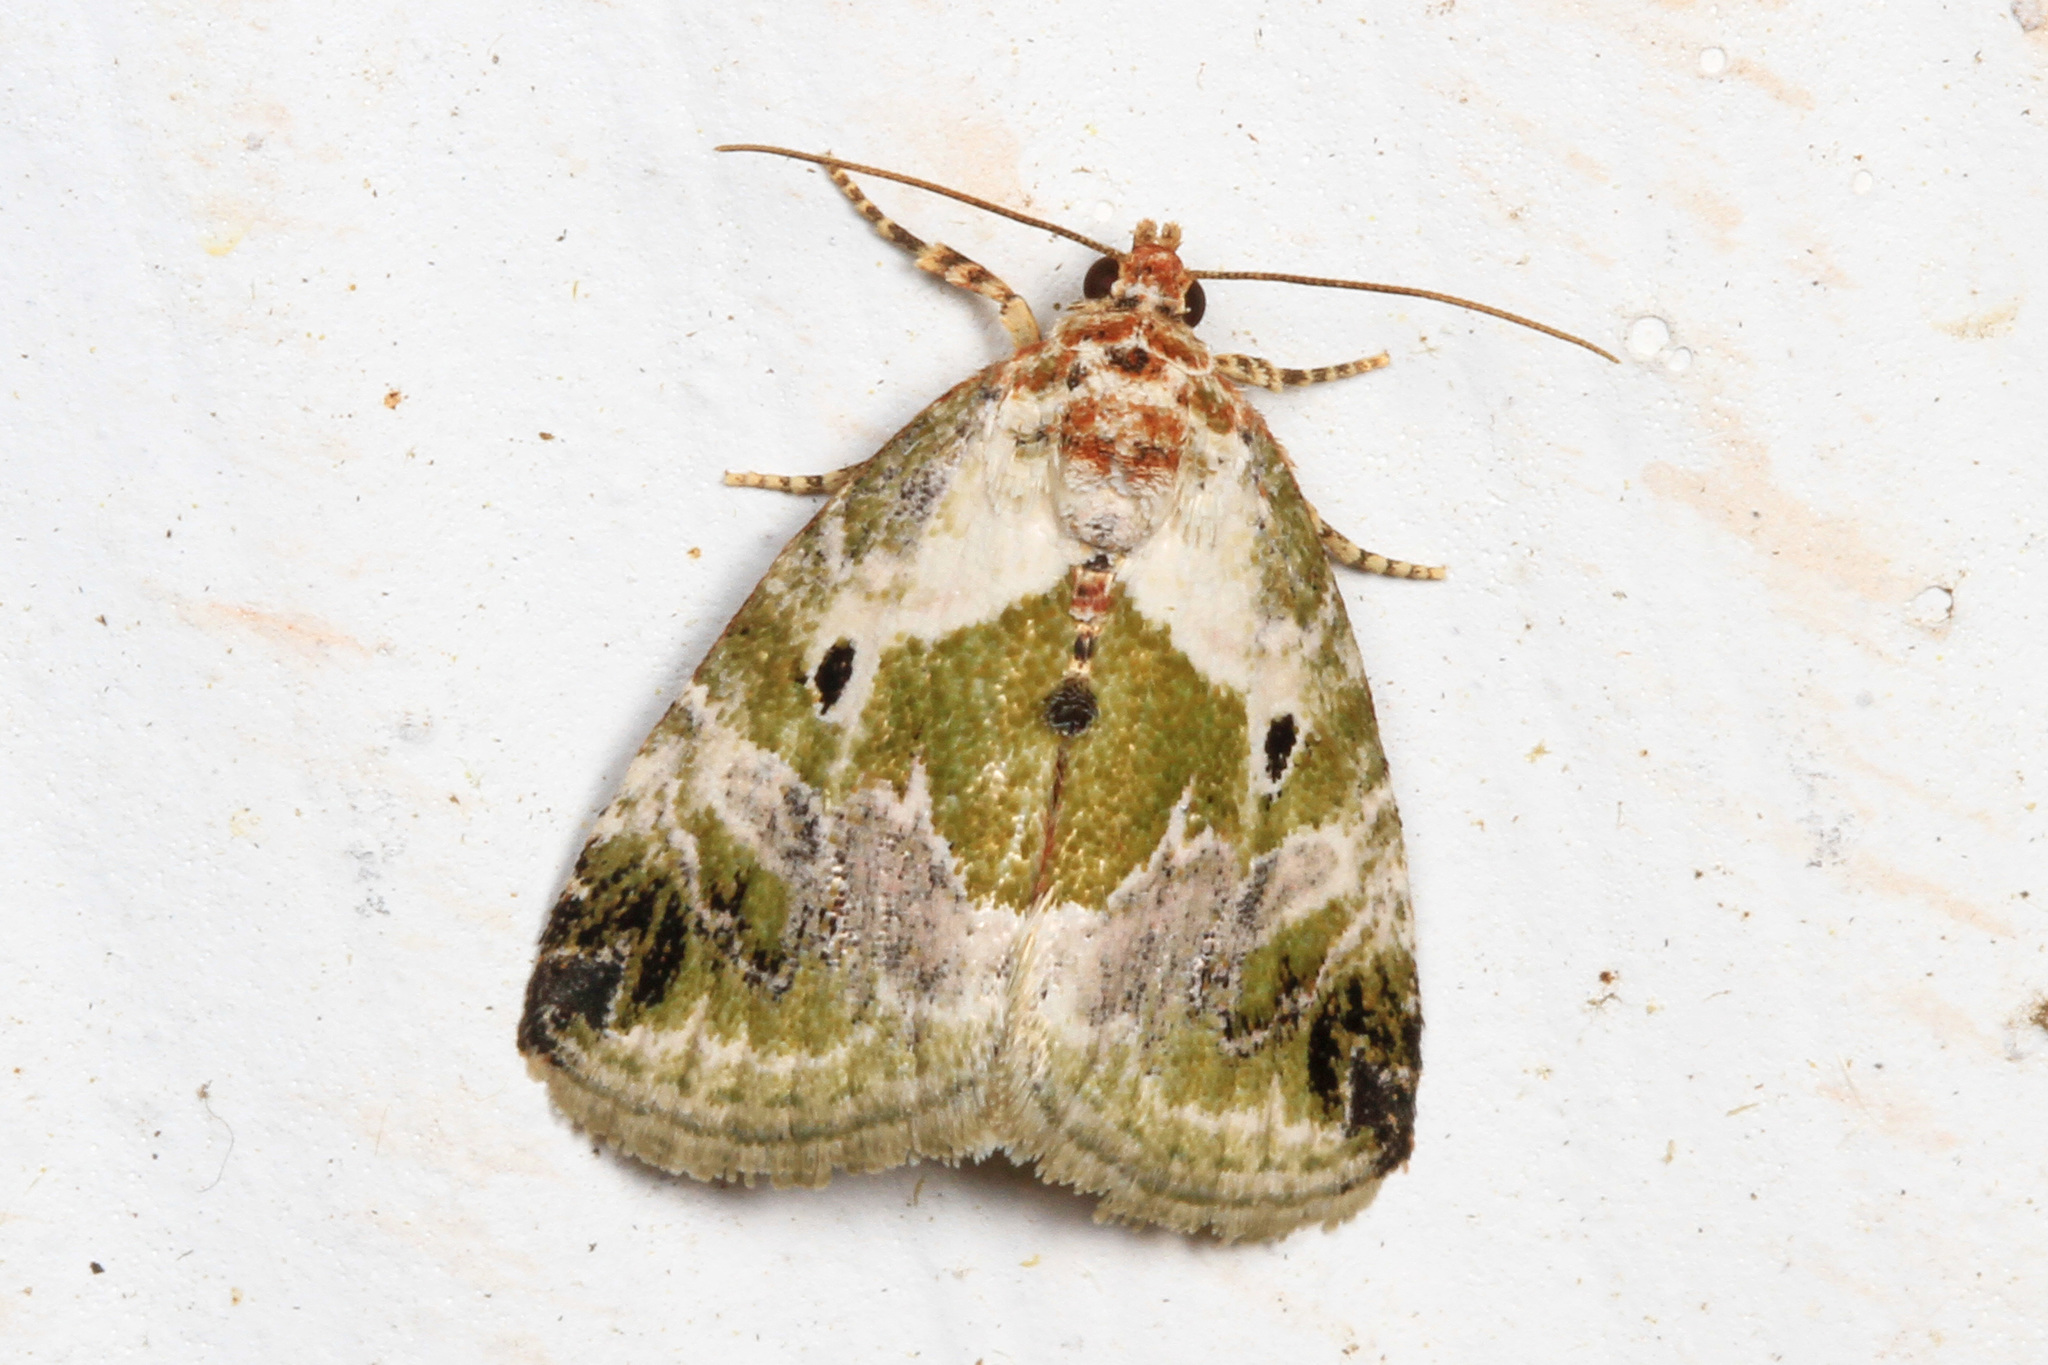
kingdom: Animalia
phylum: Arthropoda
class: Insecta
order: Lepidoptera
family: Noctuidae
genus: Maliattha
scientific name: Maliattha synochitis
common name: Black-dotted glyph
